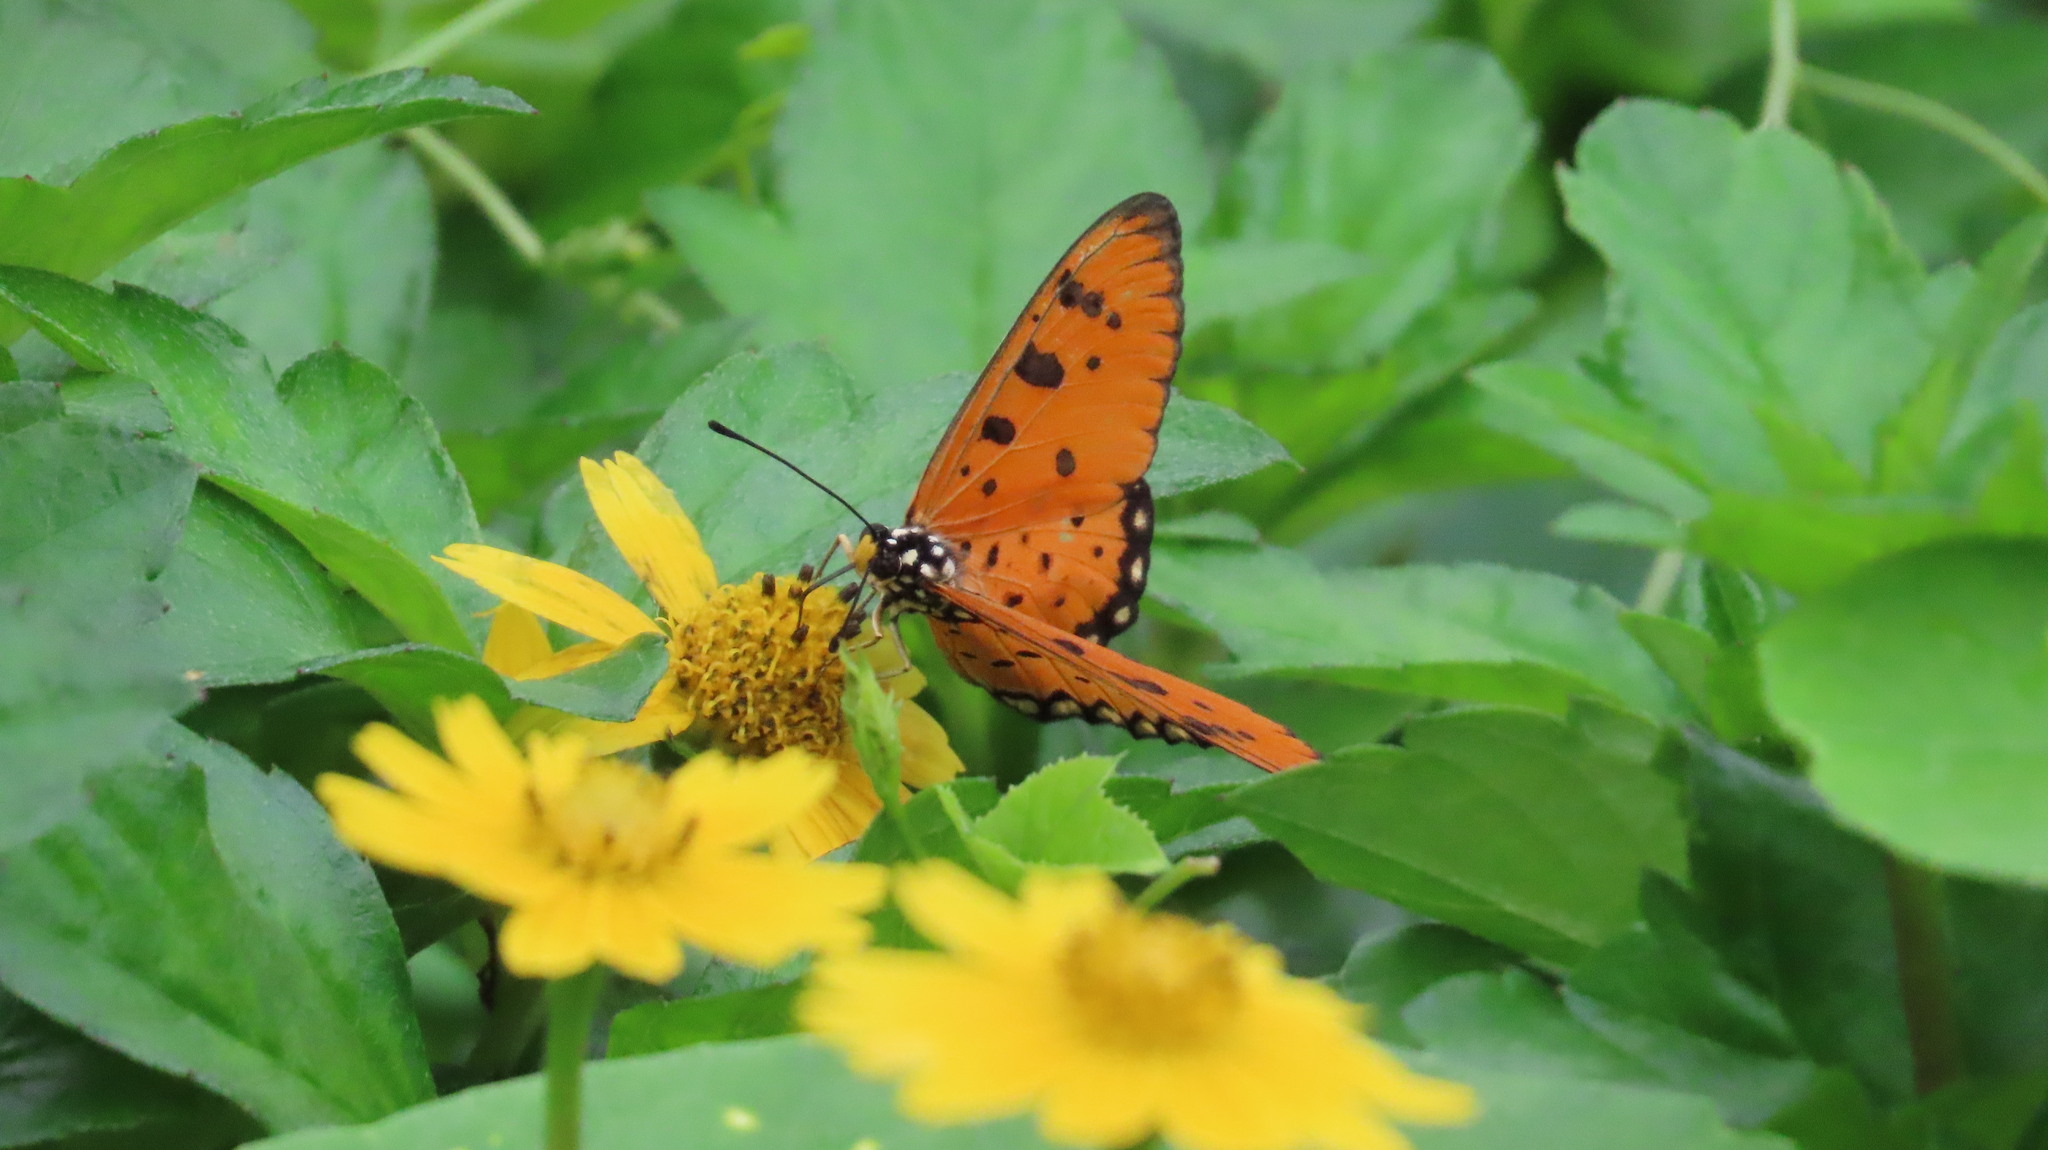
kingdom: Animalia
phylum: Arthropoda
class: Insecta
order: Lepidoptera
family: Nymphalidae
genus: Acraea
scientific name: Acraea terpsicore
